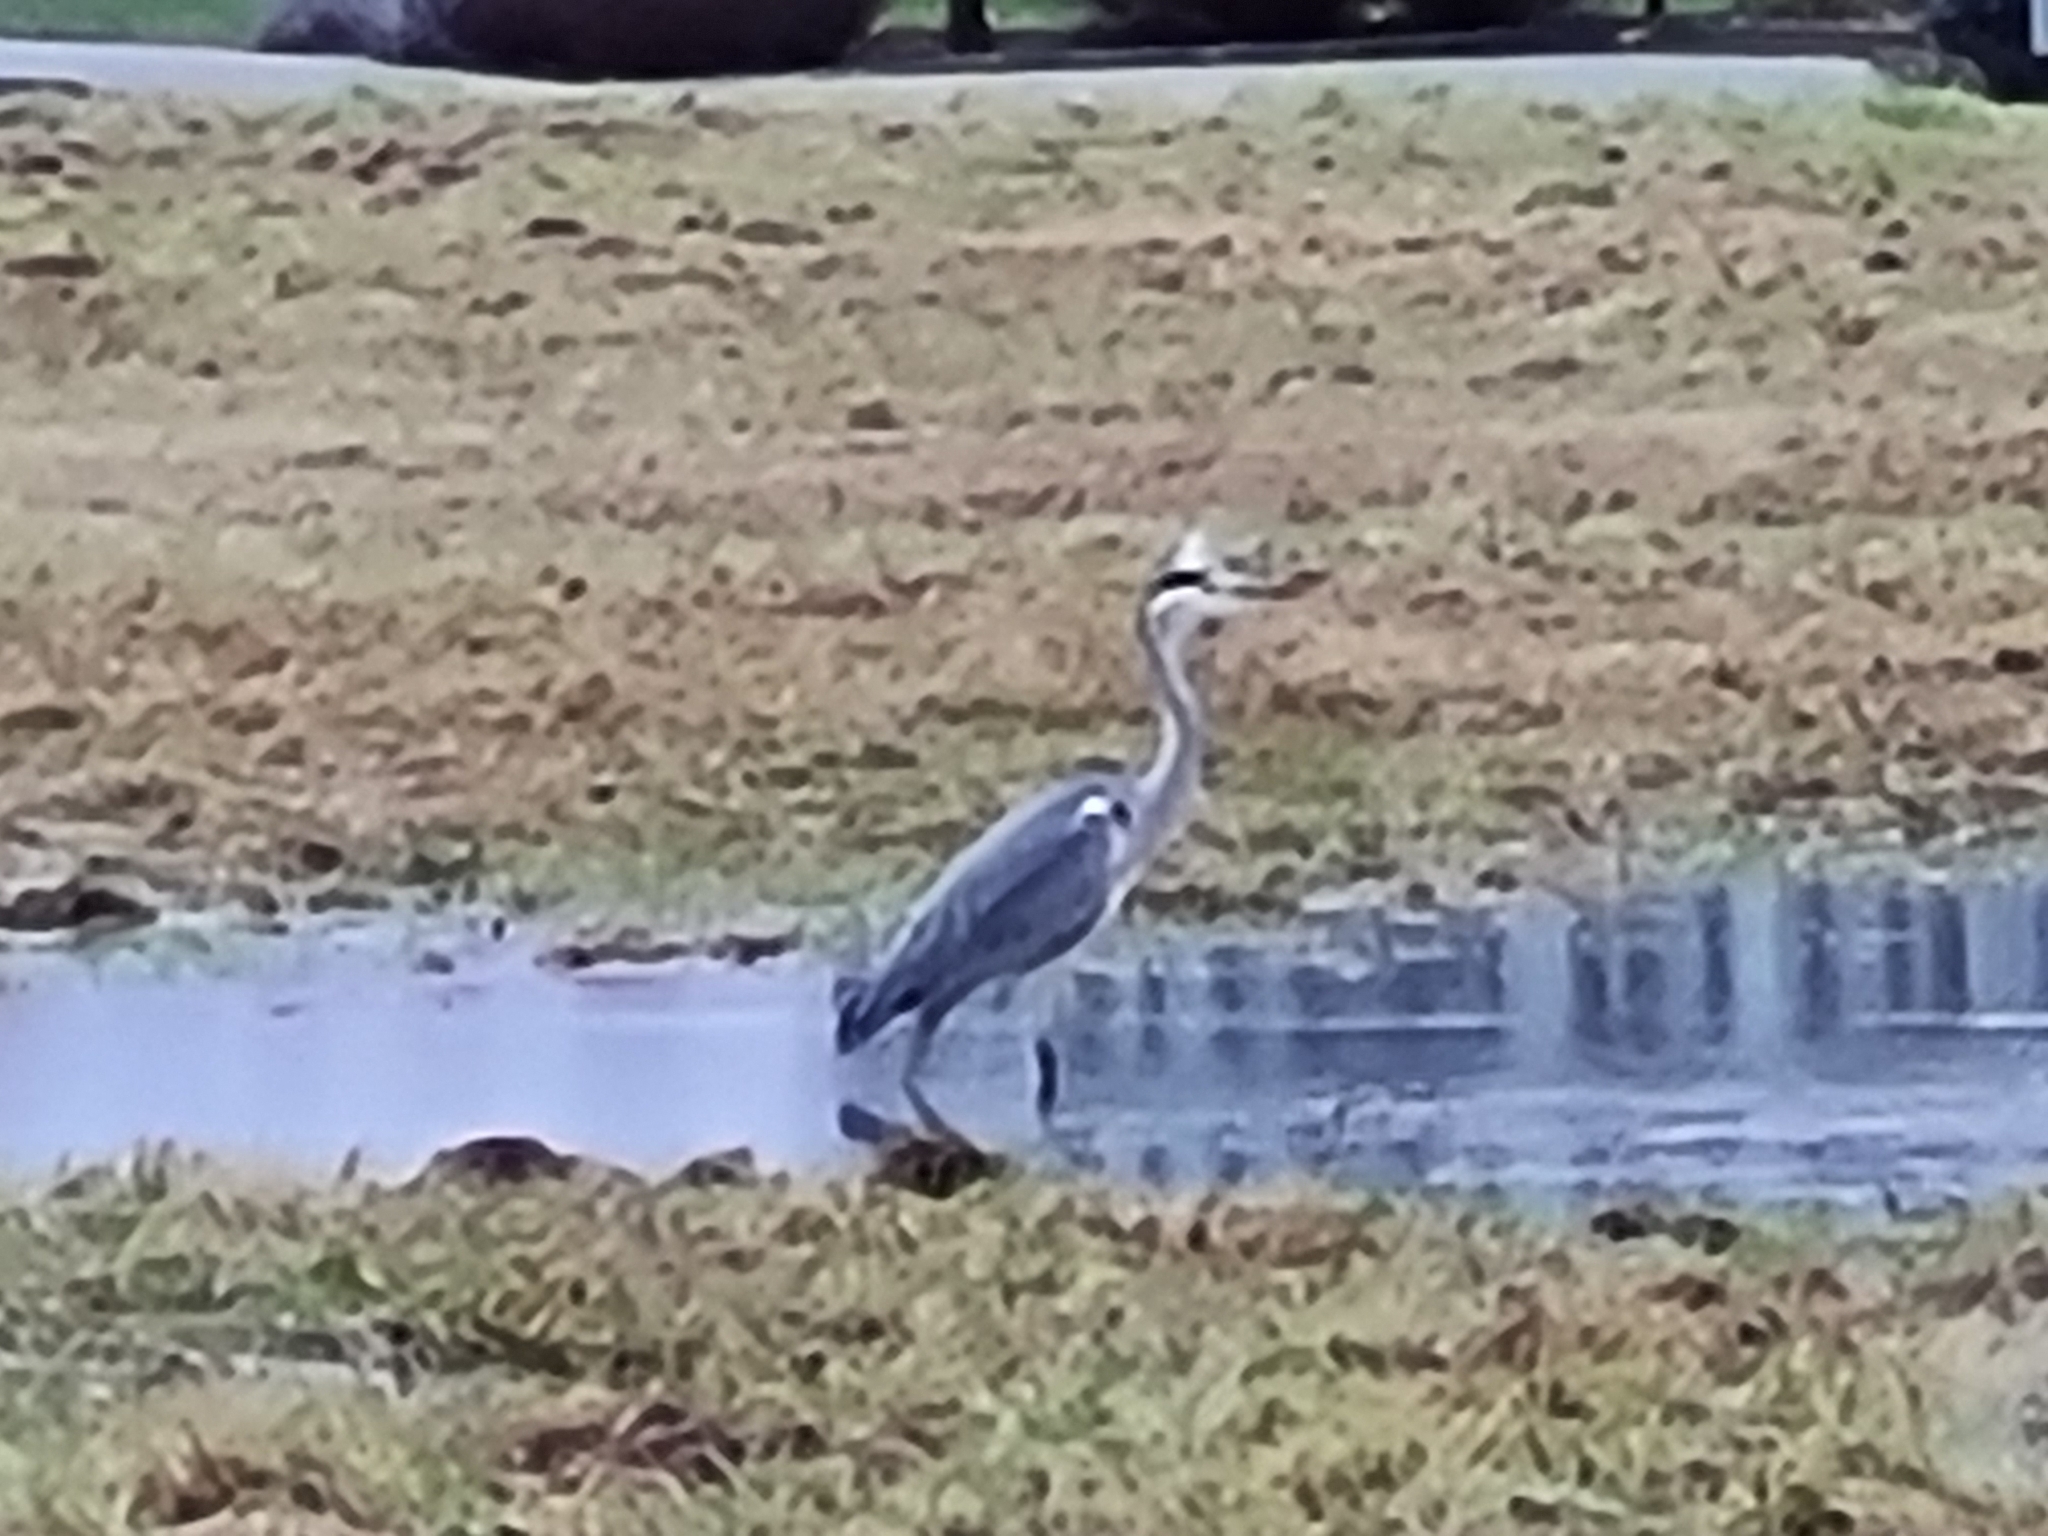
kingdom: Animalia
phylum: Chordata
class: Aves
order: Pelecaniformes
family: Ardeidae
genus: Ardea
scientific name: Ardea cinerea
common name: Grey heron
